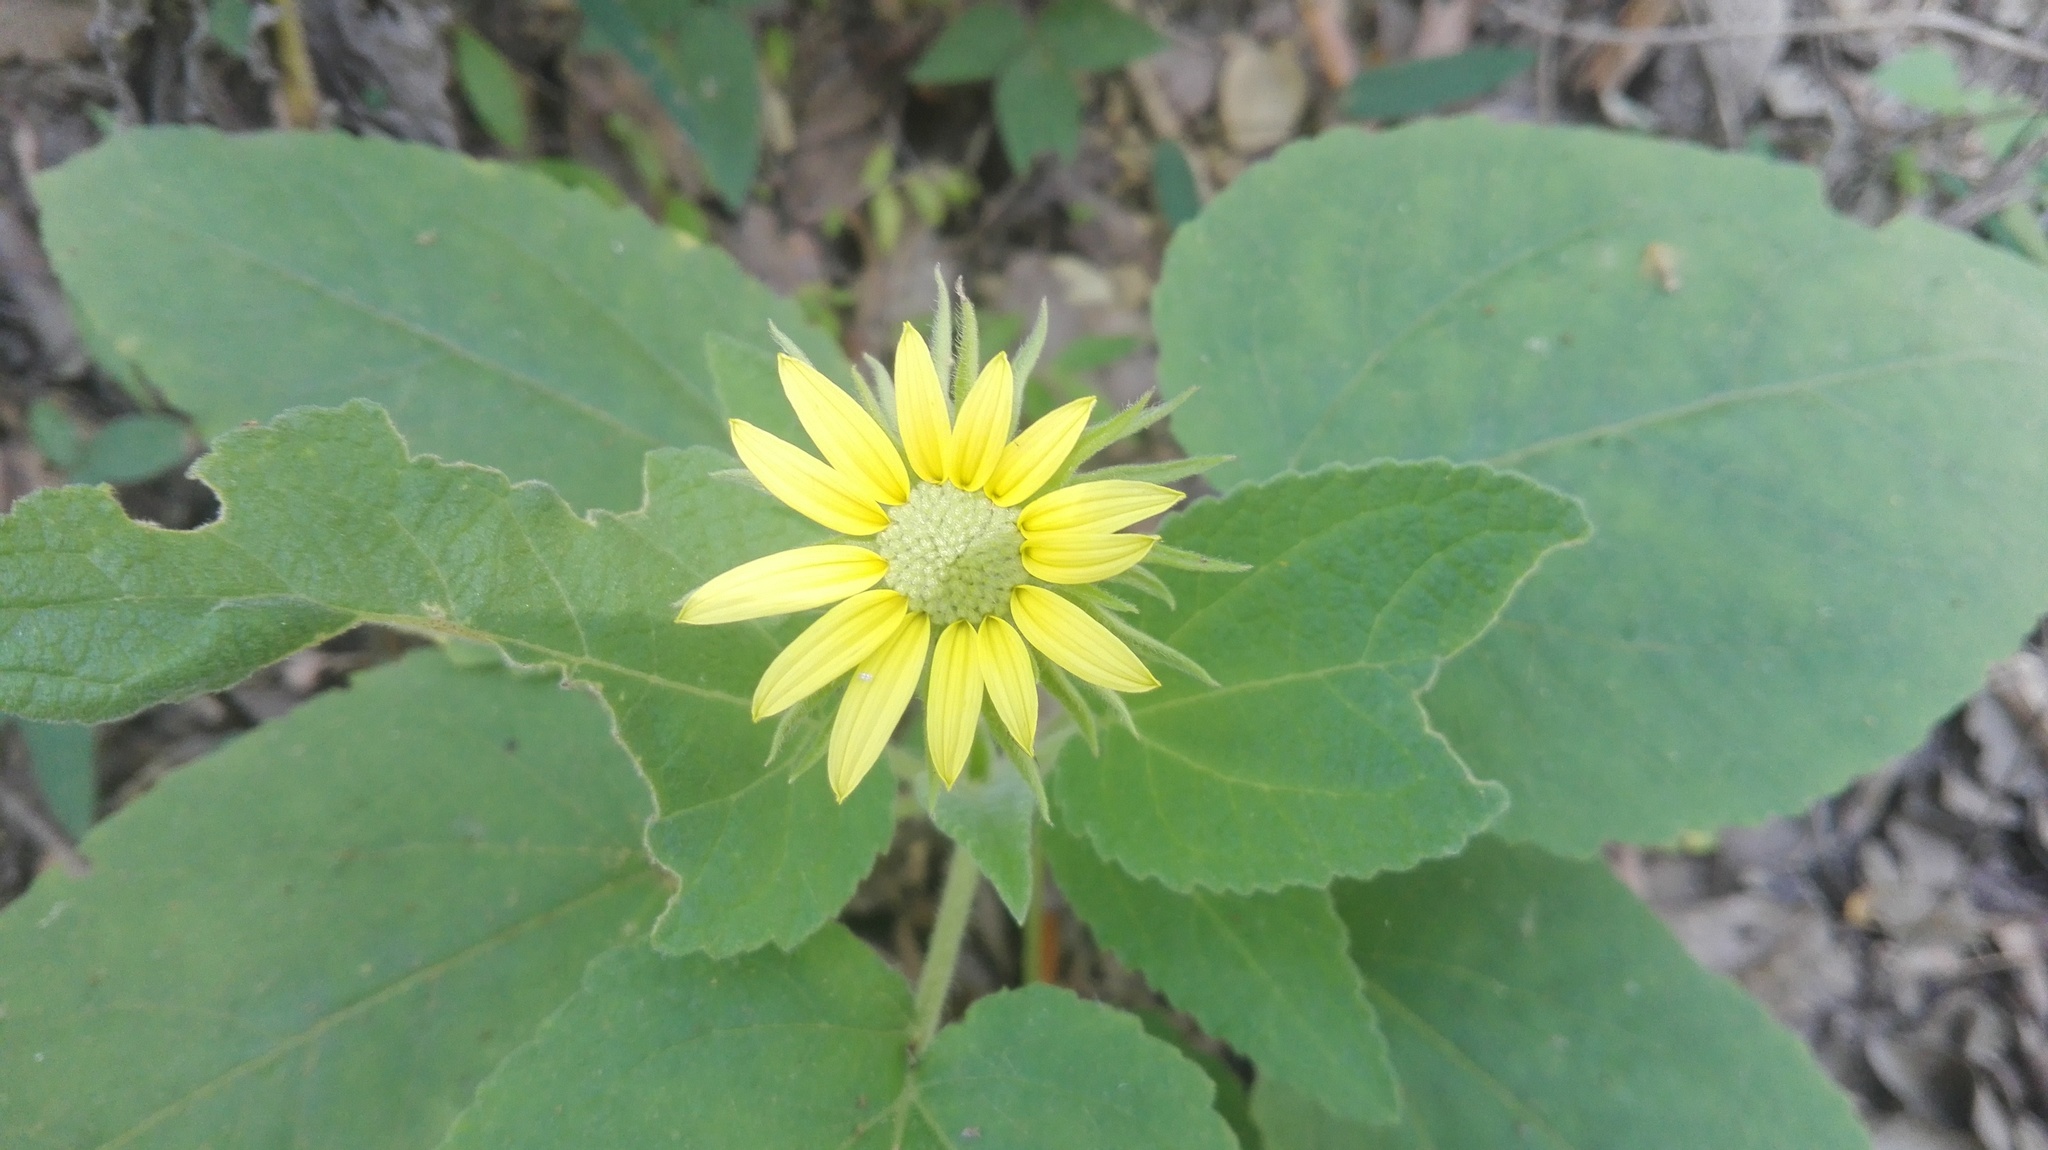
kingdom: Plantae
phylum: Tracheophyta
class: Magnoliopsida
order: Asterales
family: Asteraceae
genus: Vigethia
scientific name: Vigethia mexicana
